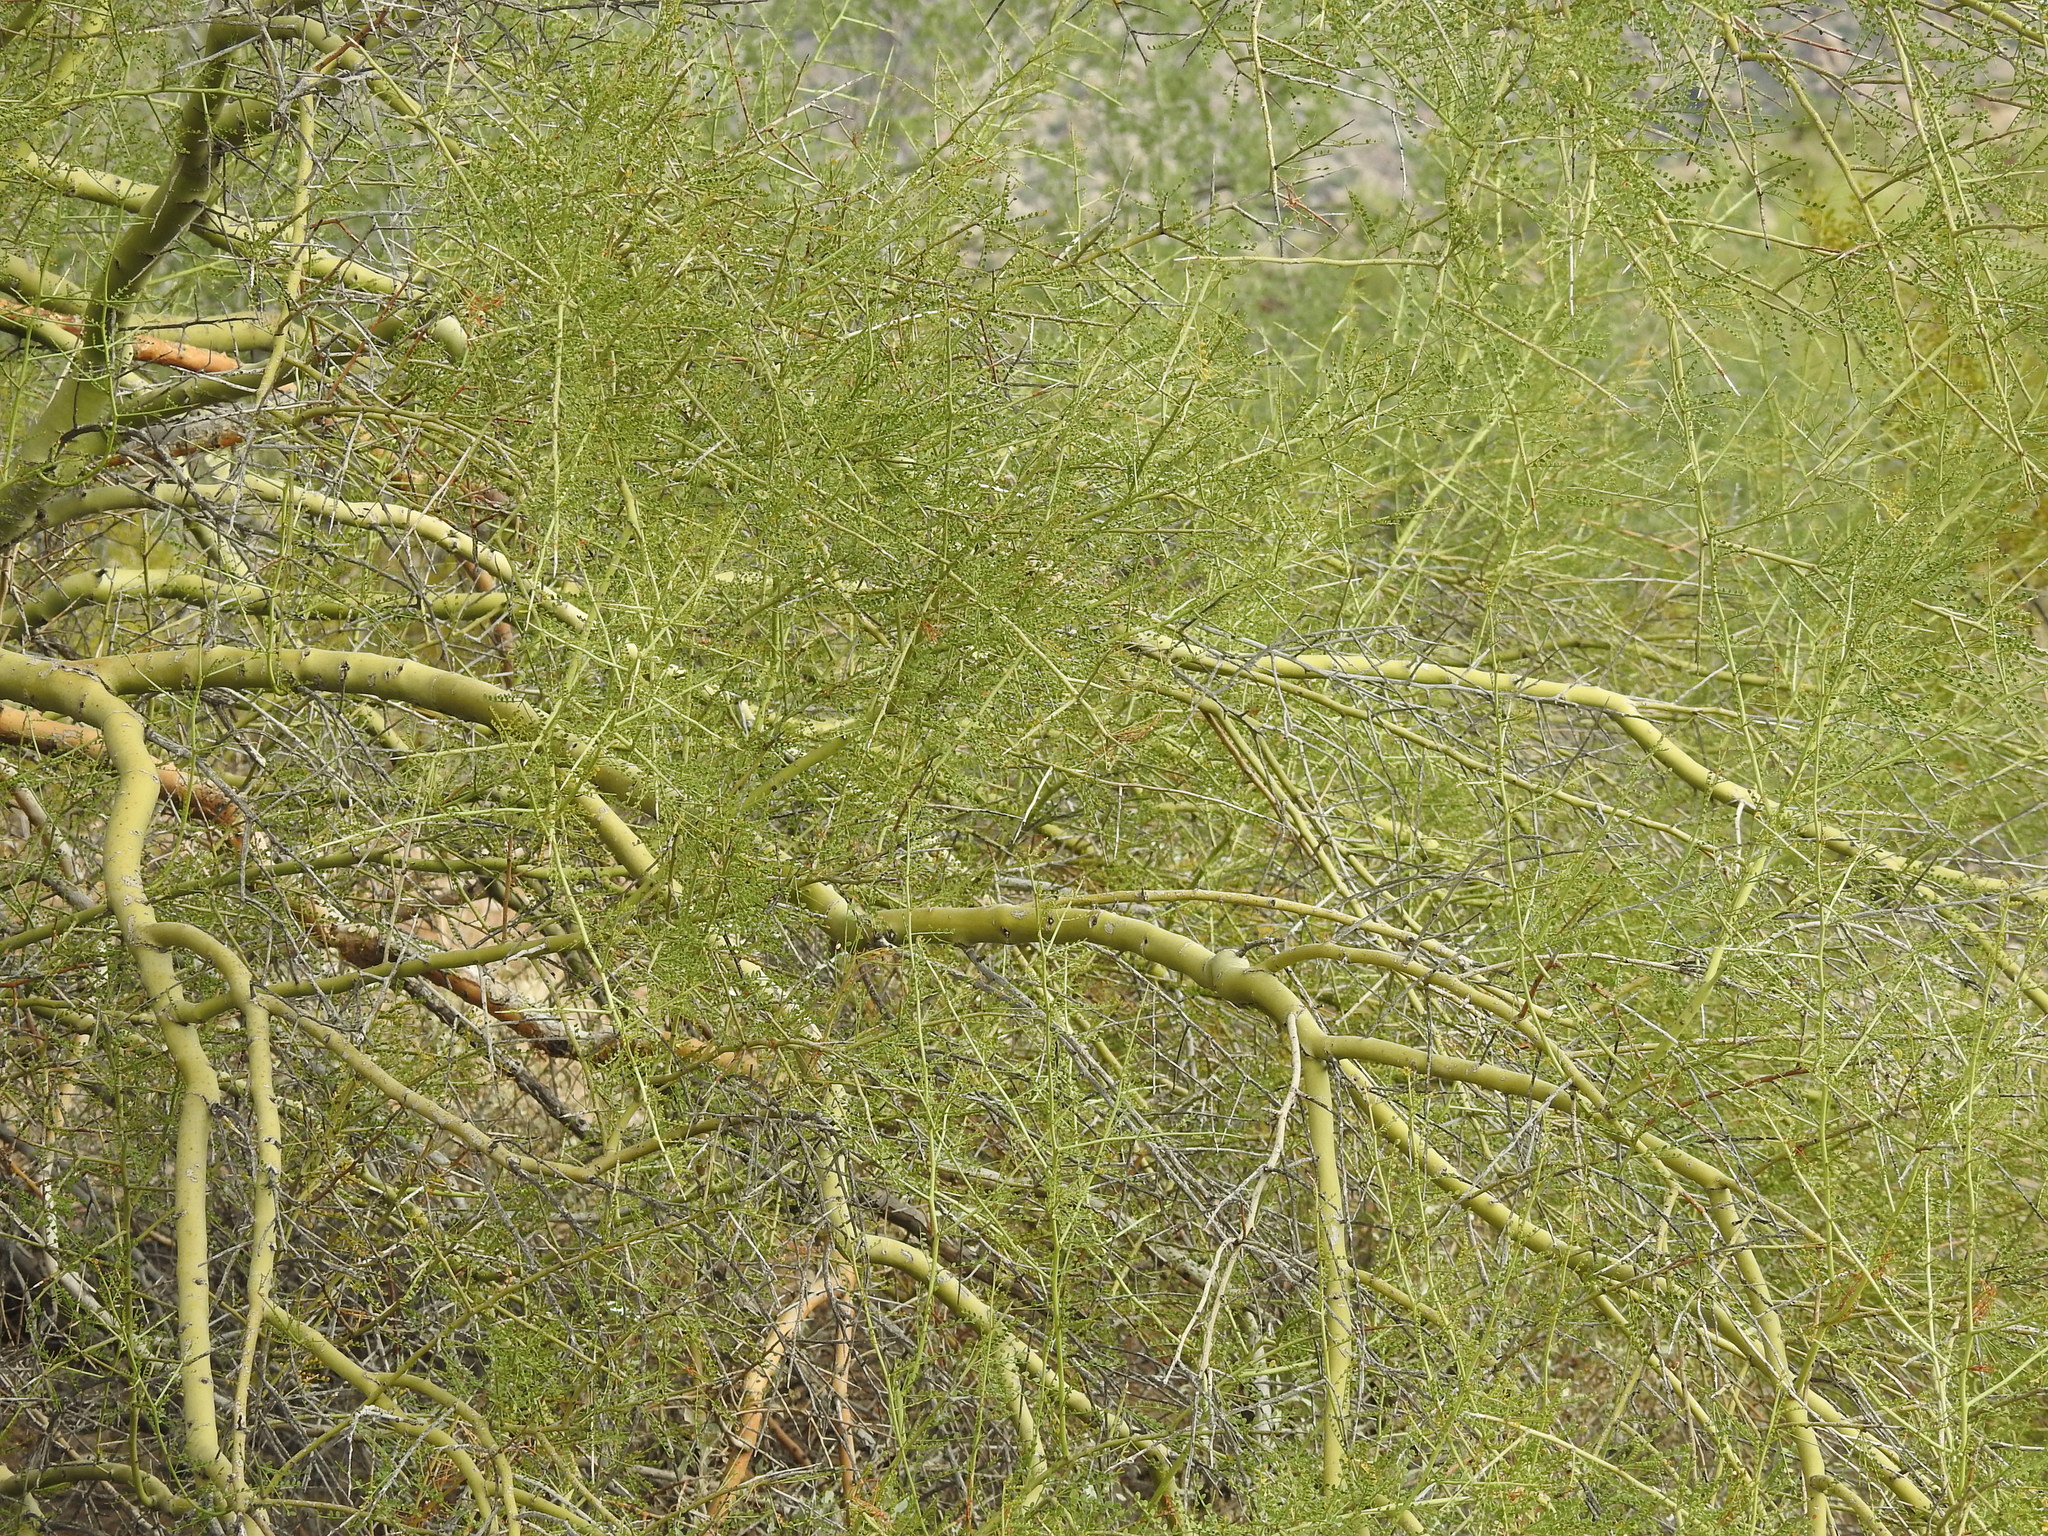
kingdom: Plantae
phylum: Tracheophyta
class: Magnoliopsida
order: Fabales
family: Fabaceae
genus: Parkinsonia
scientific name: Parkinsonia microphylla
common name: Yellow paloverde
